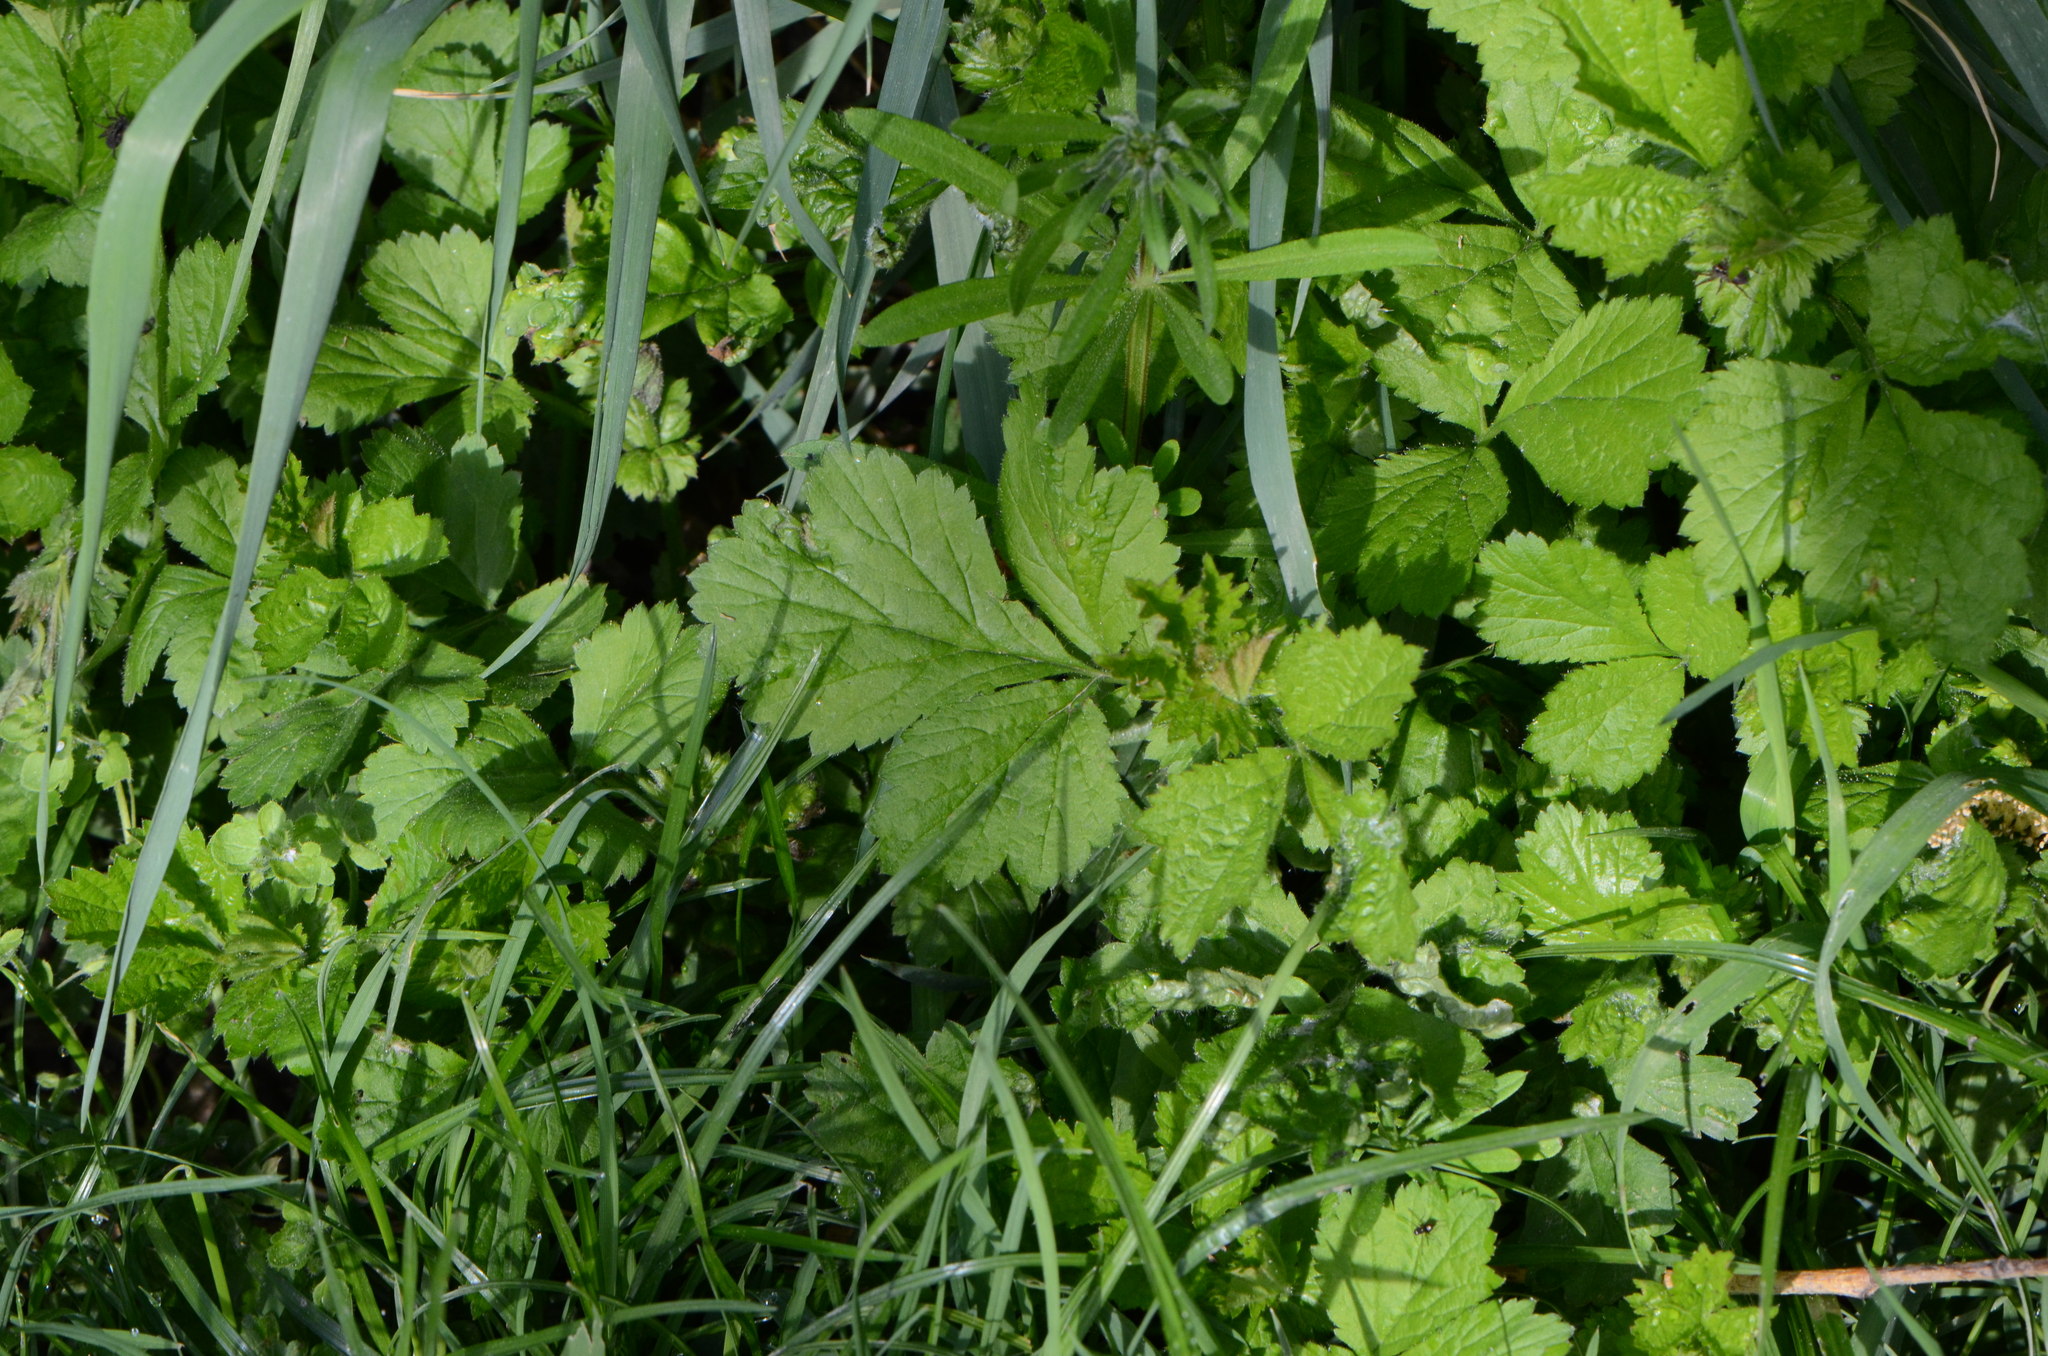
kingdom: Plantae
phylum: Tracheophyta
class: Magnoliopsida
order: Rosales
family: Rosaceae
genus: Geum
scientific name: Geum urbanum
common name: Wood avens
